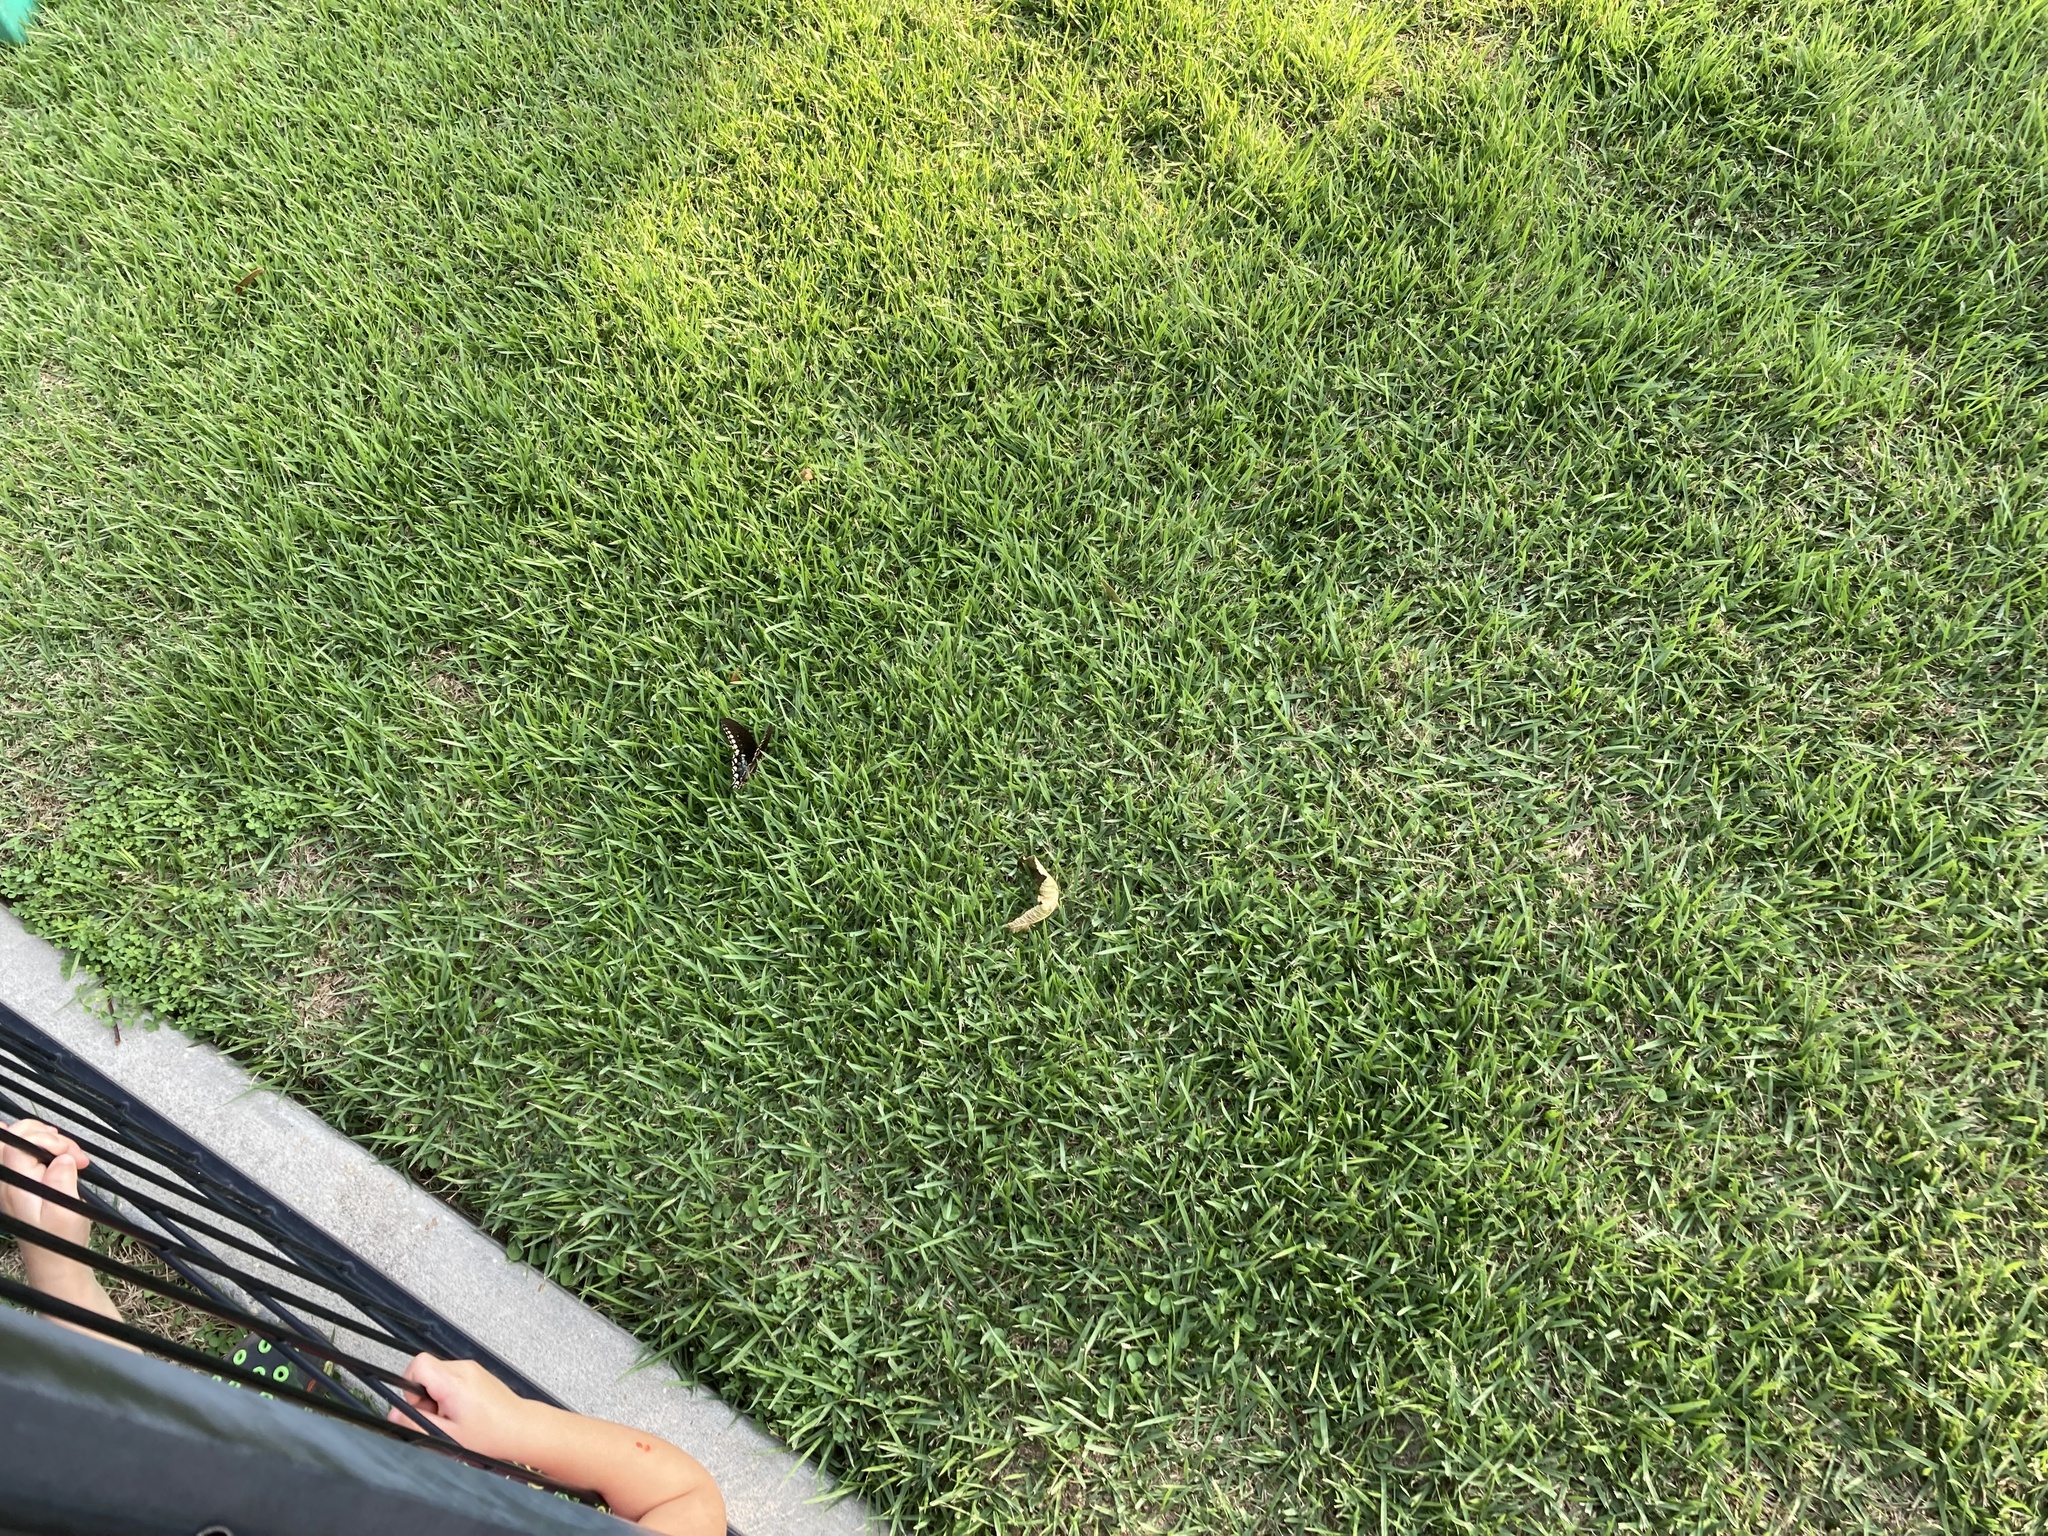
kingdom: Animalia
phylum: Arthropoda
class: Insecta
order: Lepidoptera
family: Papilionidae
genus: Papilio
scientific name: Papilio troilus
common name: Spicebush swallowtail
